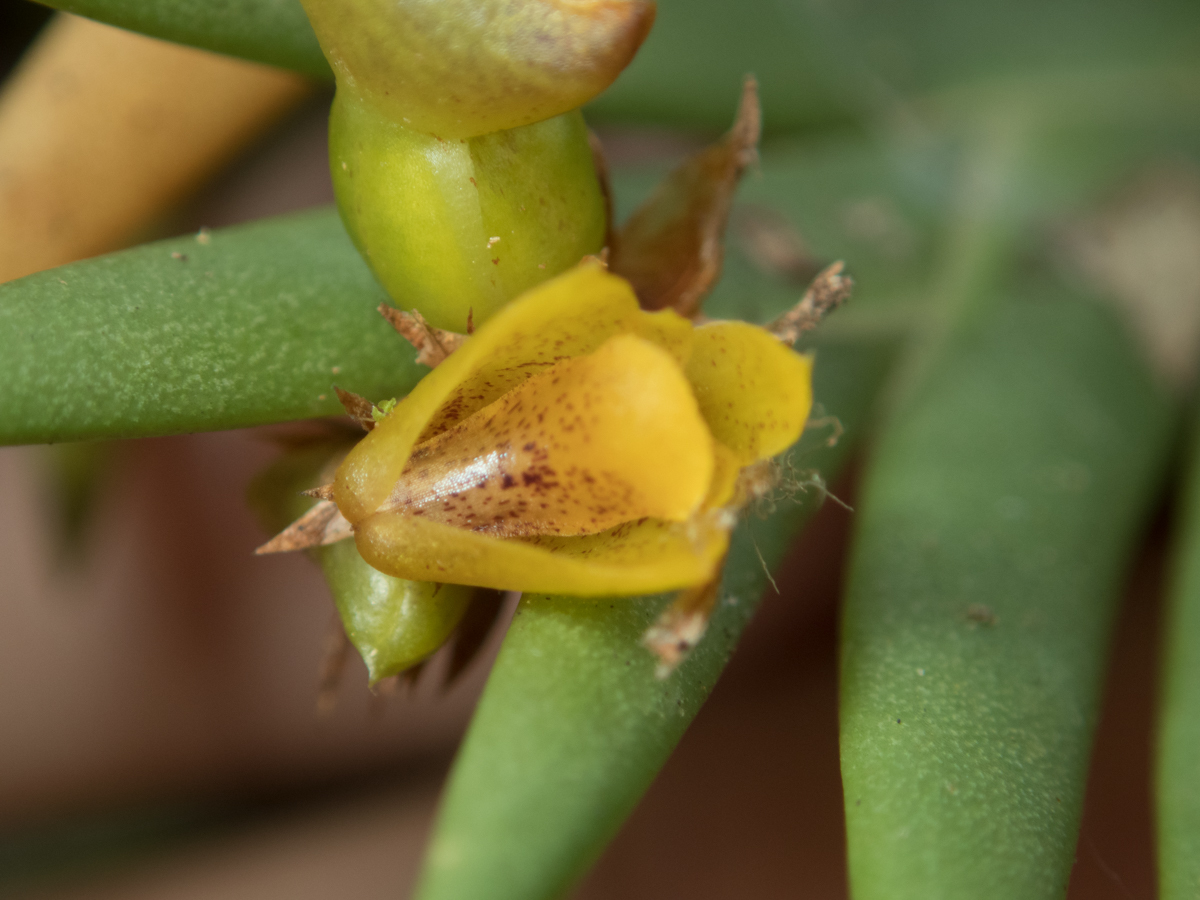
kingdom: Plantae
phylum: Tracheophyta
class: Liliopsida
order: Asparagales
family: Orchidaceae
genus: Oxystophyllum
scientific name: Oxystophyllum carnosum
